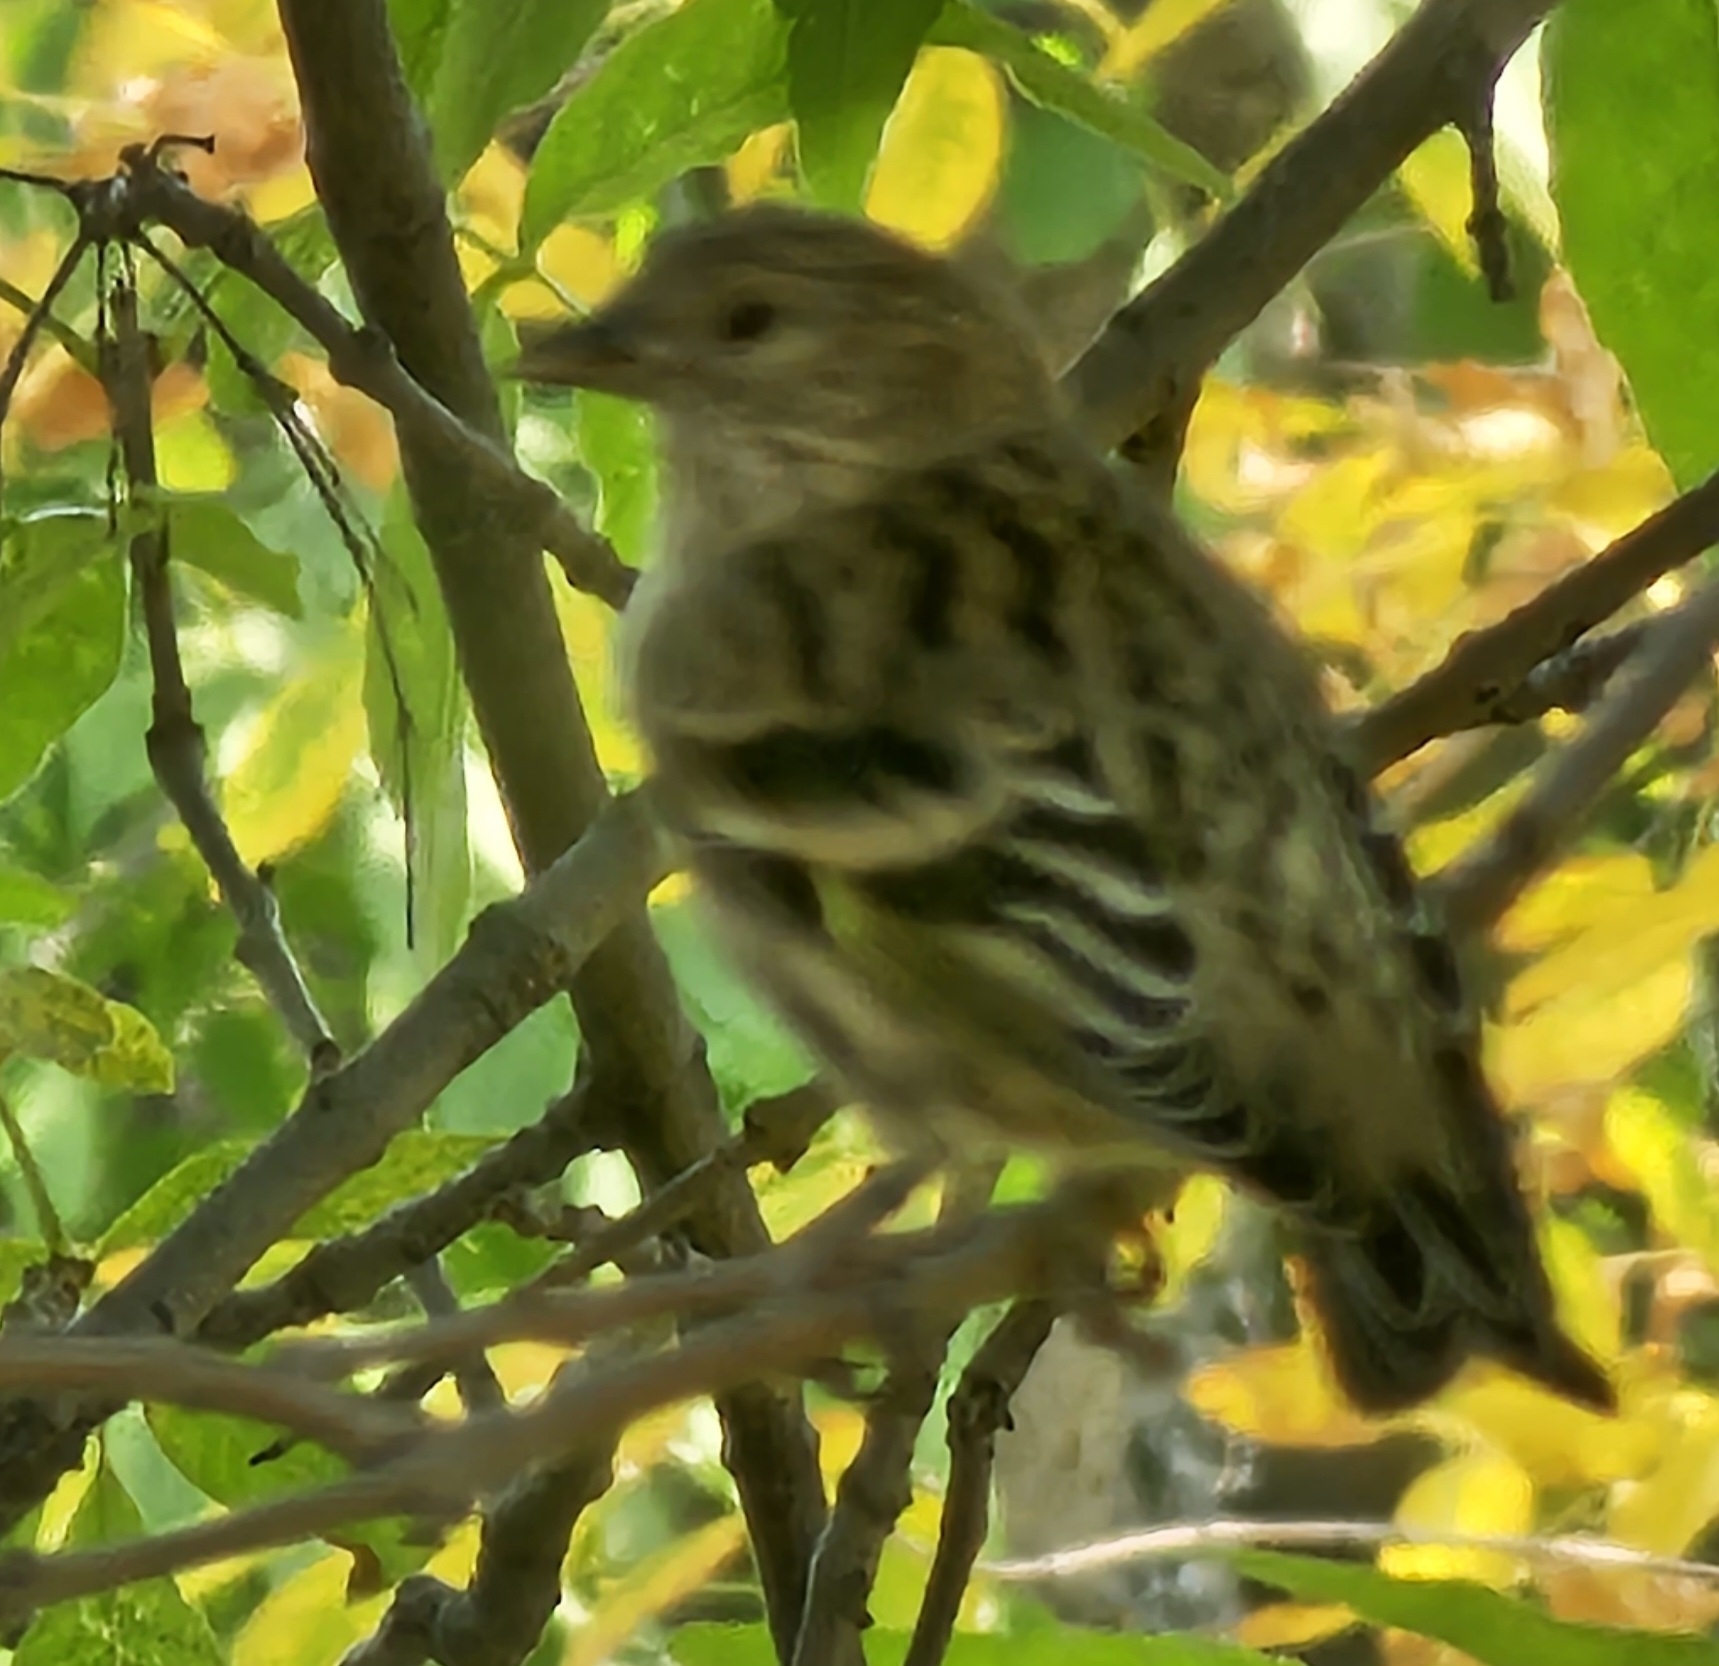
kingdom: Animalia
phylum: Chordata
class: Aves
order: Passeriformes
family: Fringillidae
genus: Spinus
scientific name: Spinus pinus
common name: Pine siskin
